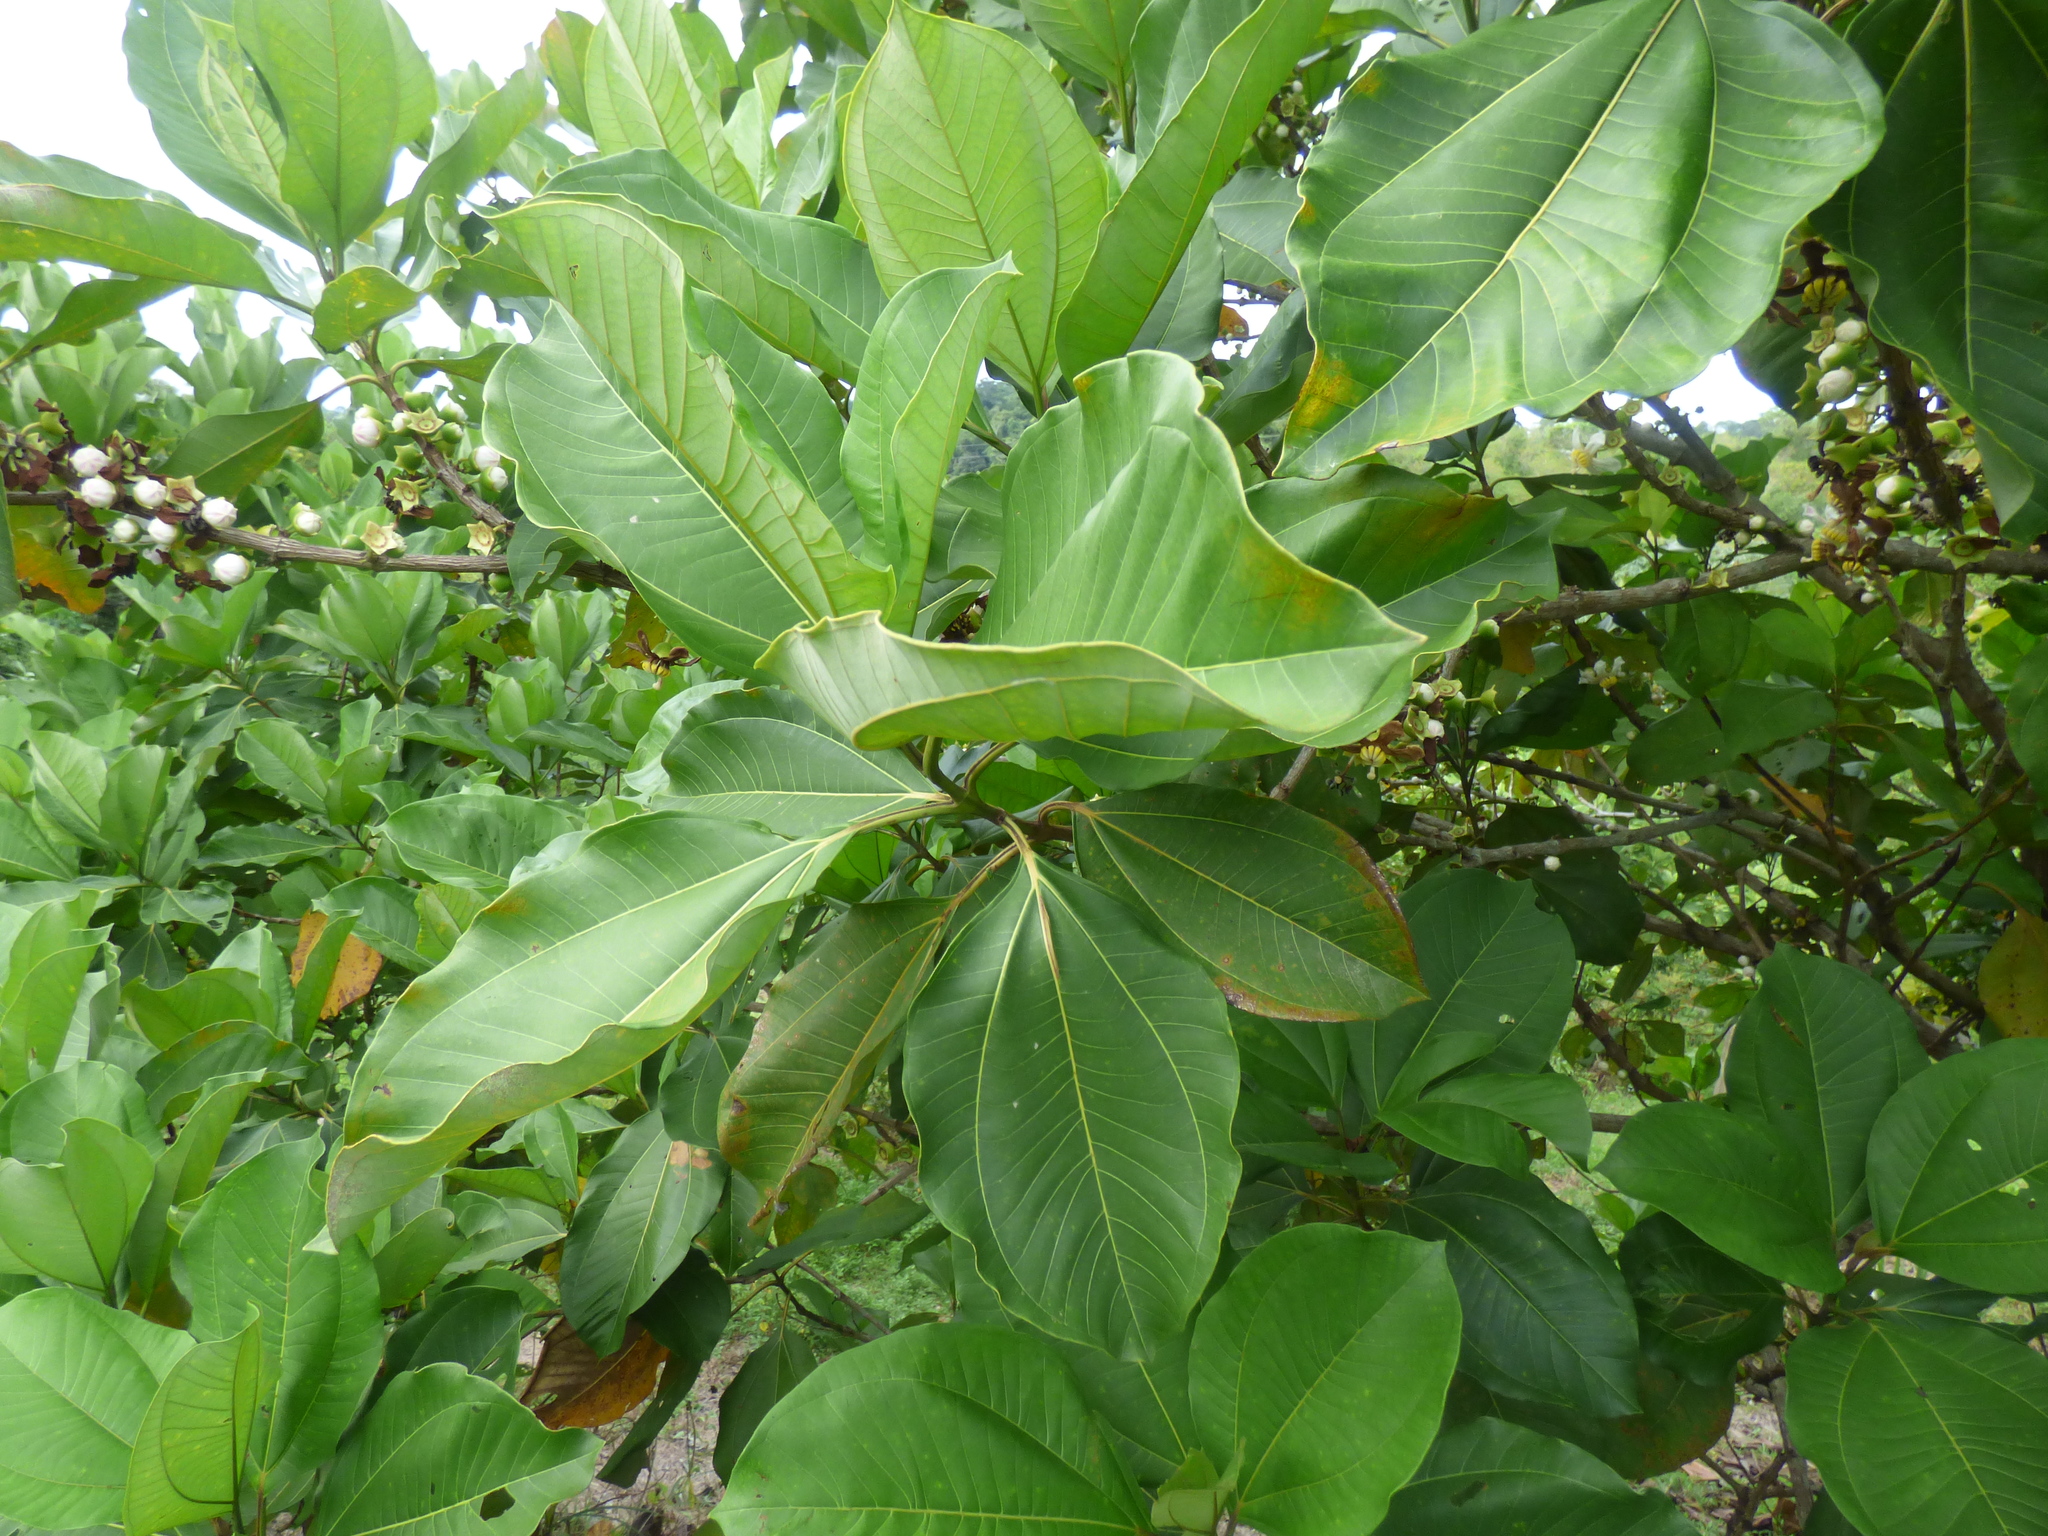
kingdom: Plantae
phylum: Tracheophyta
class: Magnoliopsida
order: Myrtales
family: Melastomataceae
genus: Bellucia
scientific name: Bellucia pentamera
